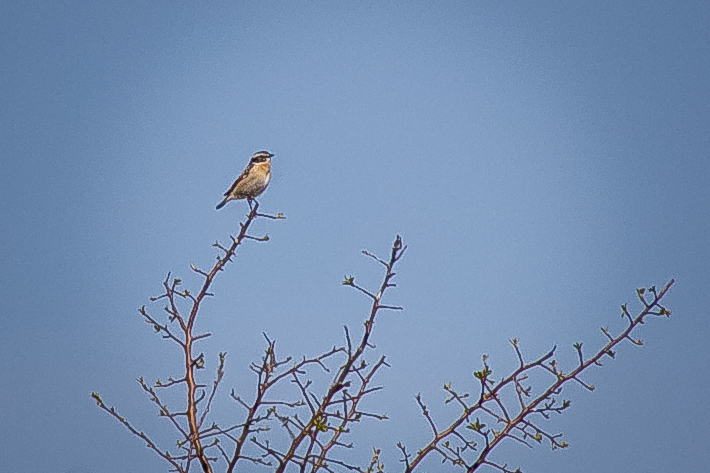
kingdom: Animalia
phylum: Chordata
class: Aves
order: Passeriformes
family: Muscicapidae
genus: Saxicola
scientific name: Saxicola rubetra
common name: Whinchat
